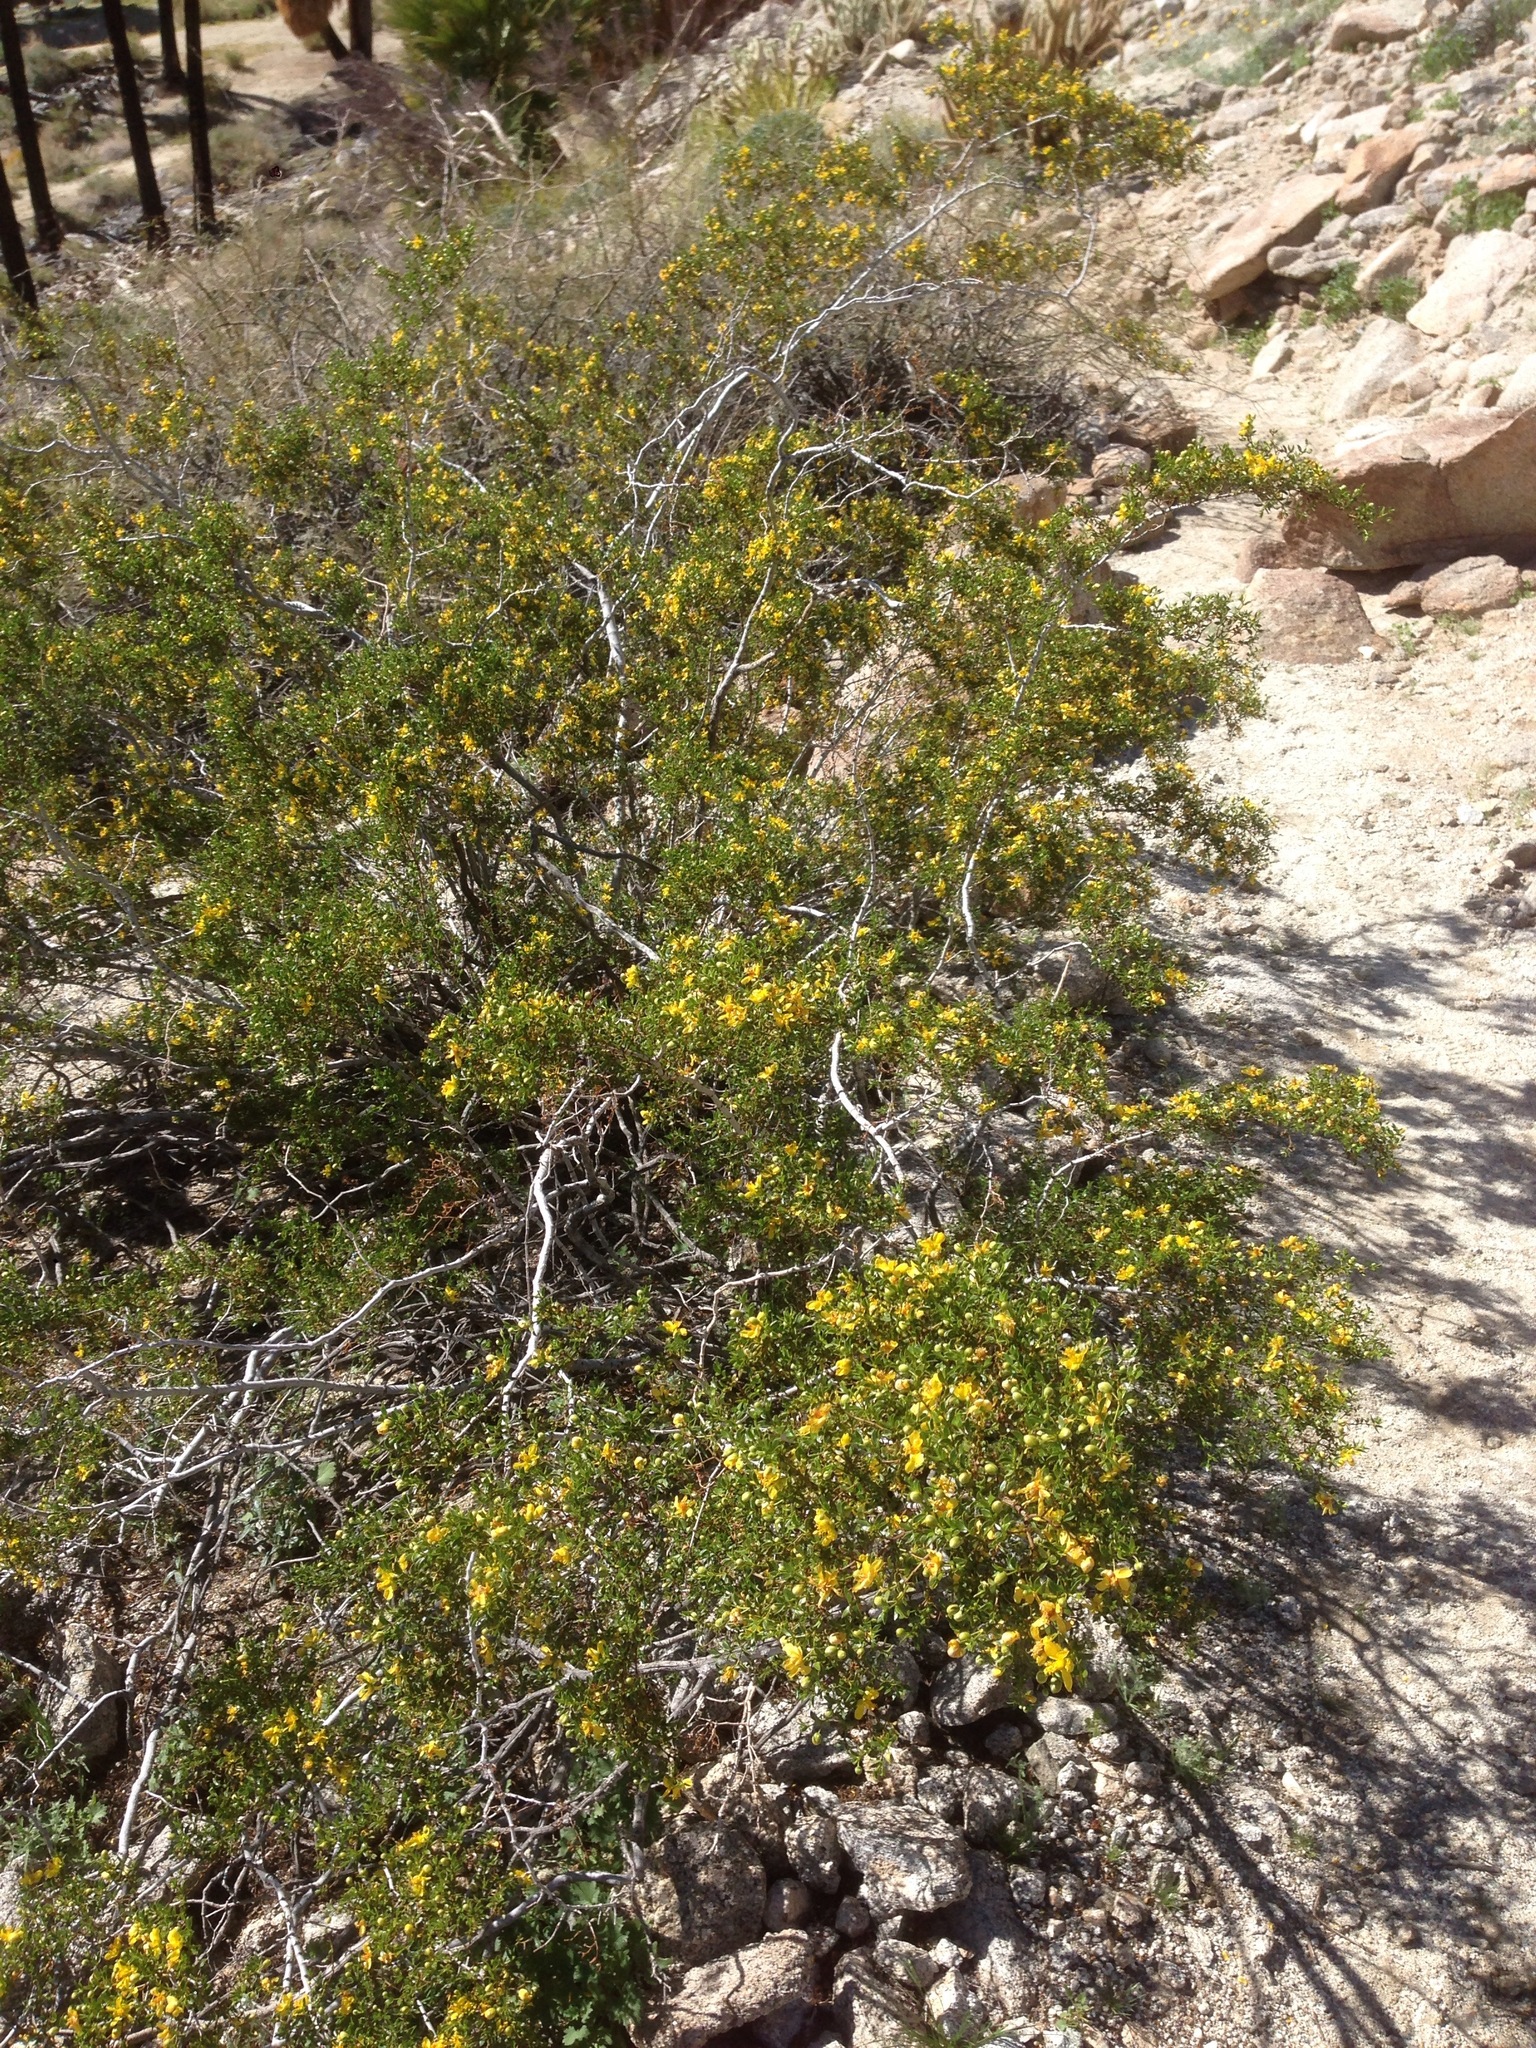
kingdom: Plantae
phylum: Tracheophyta
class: Magnoliopsida
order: Zygophyllales
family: Zygophyllaceae
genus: Larrea
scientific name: Larrea tridentata
